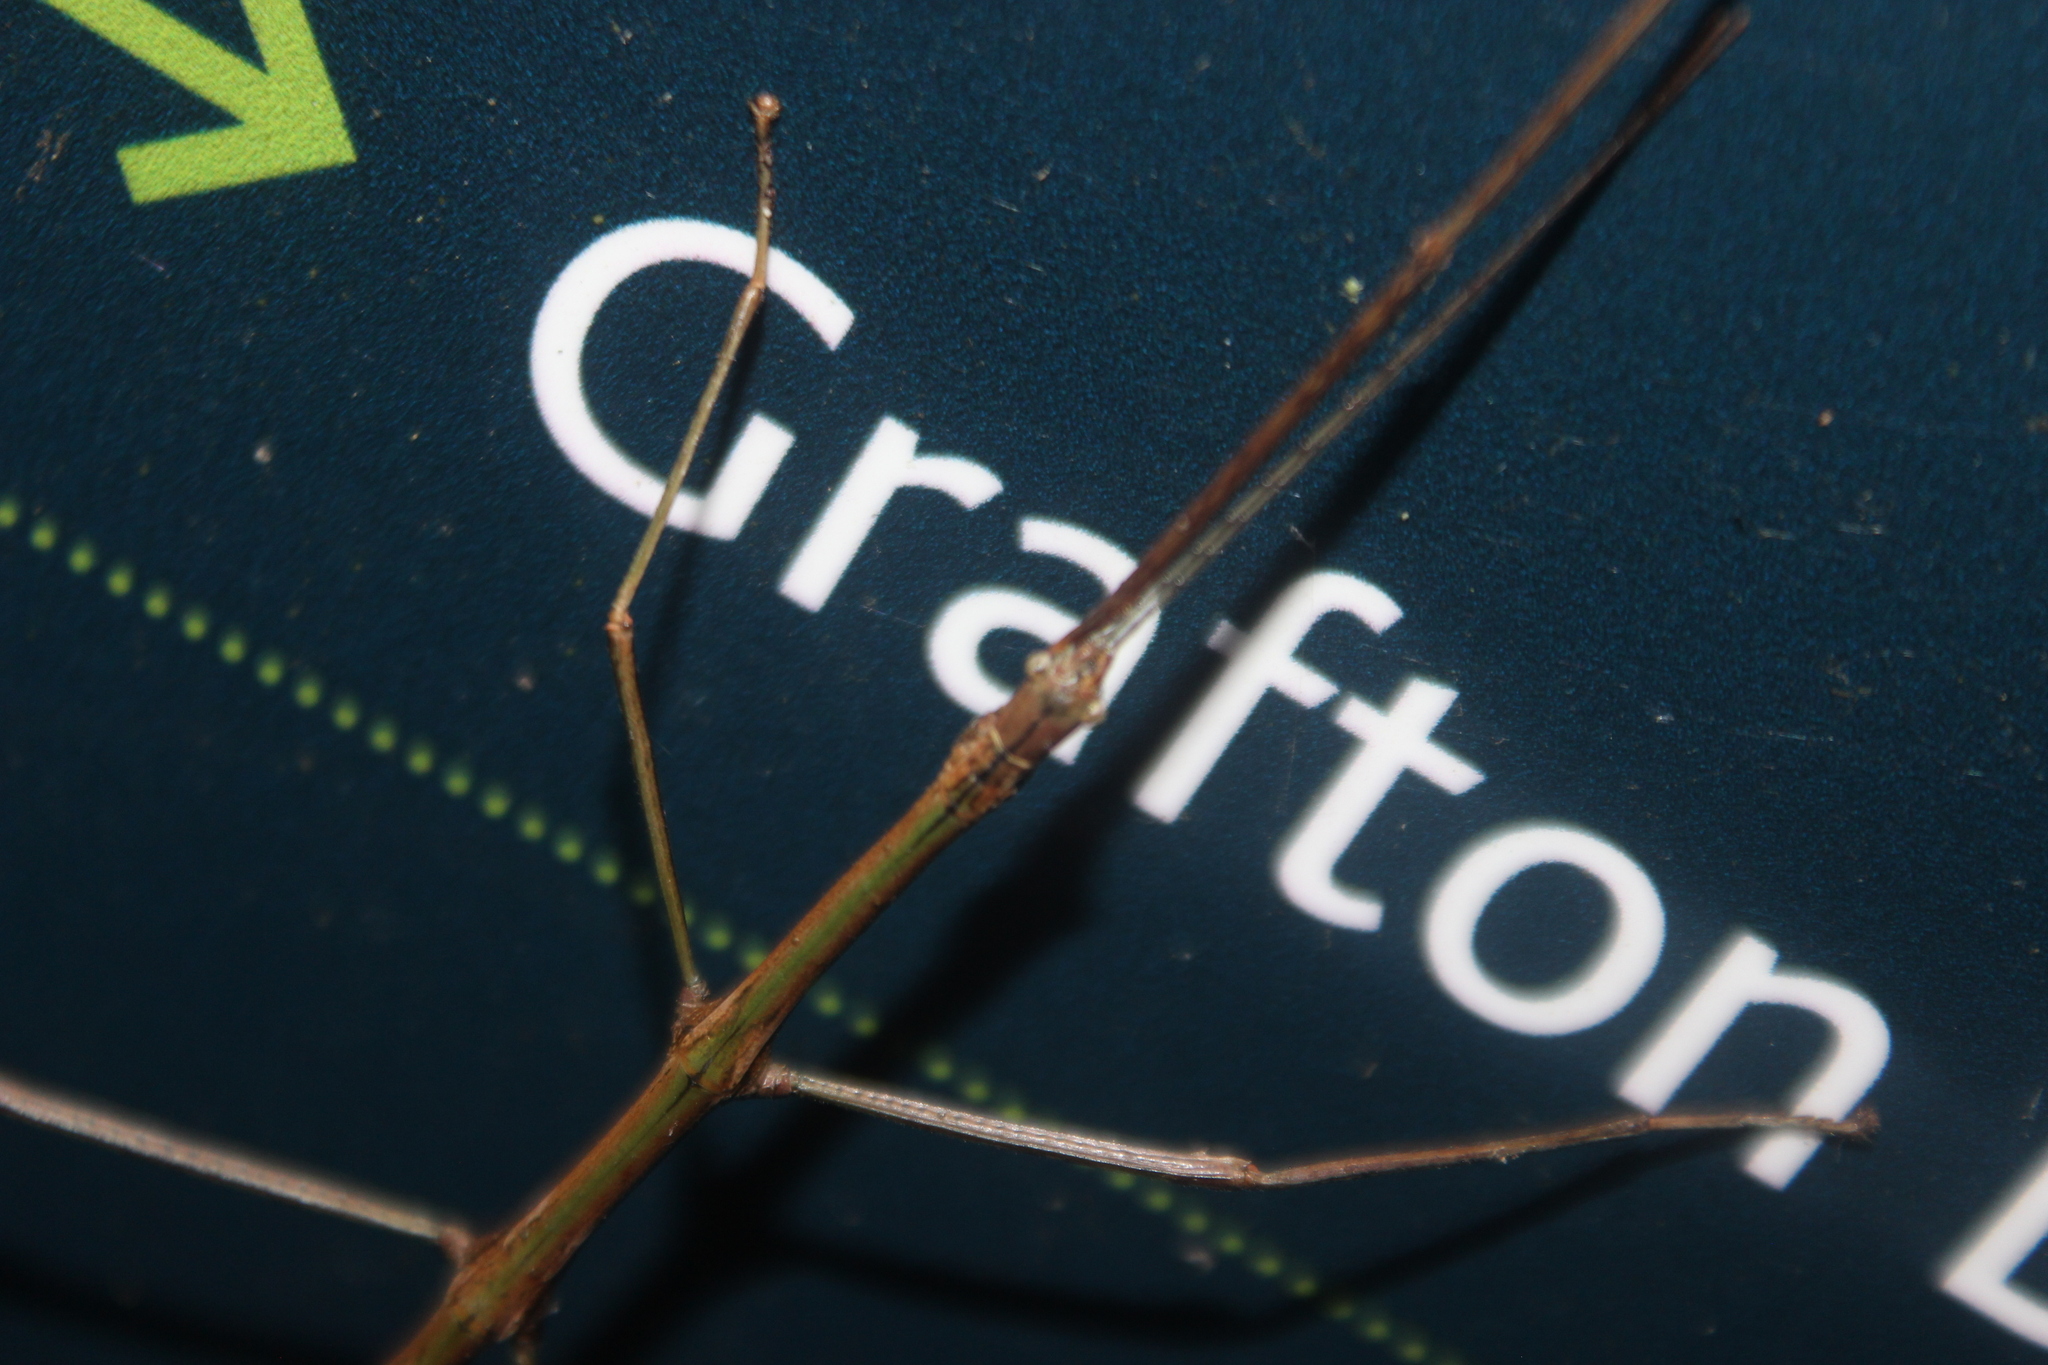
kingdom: Animalia
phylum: Arthropoda
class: Insecta
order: Phasmida
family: Phasmatidae
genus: Clitarchus
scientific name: Clitarchus hookeri
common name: Smooth stick insect
